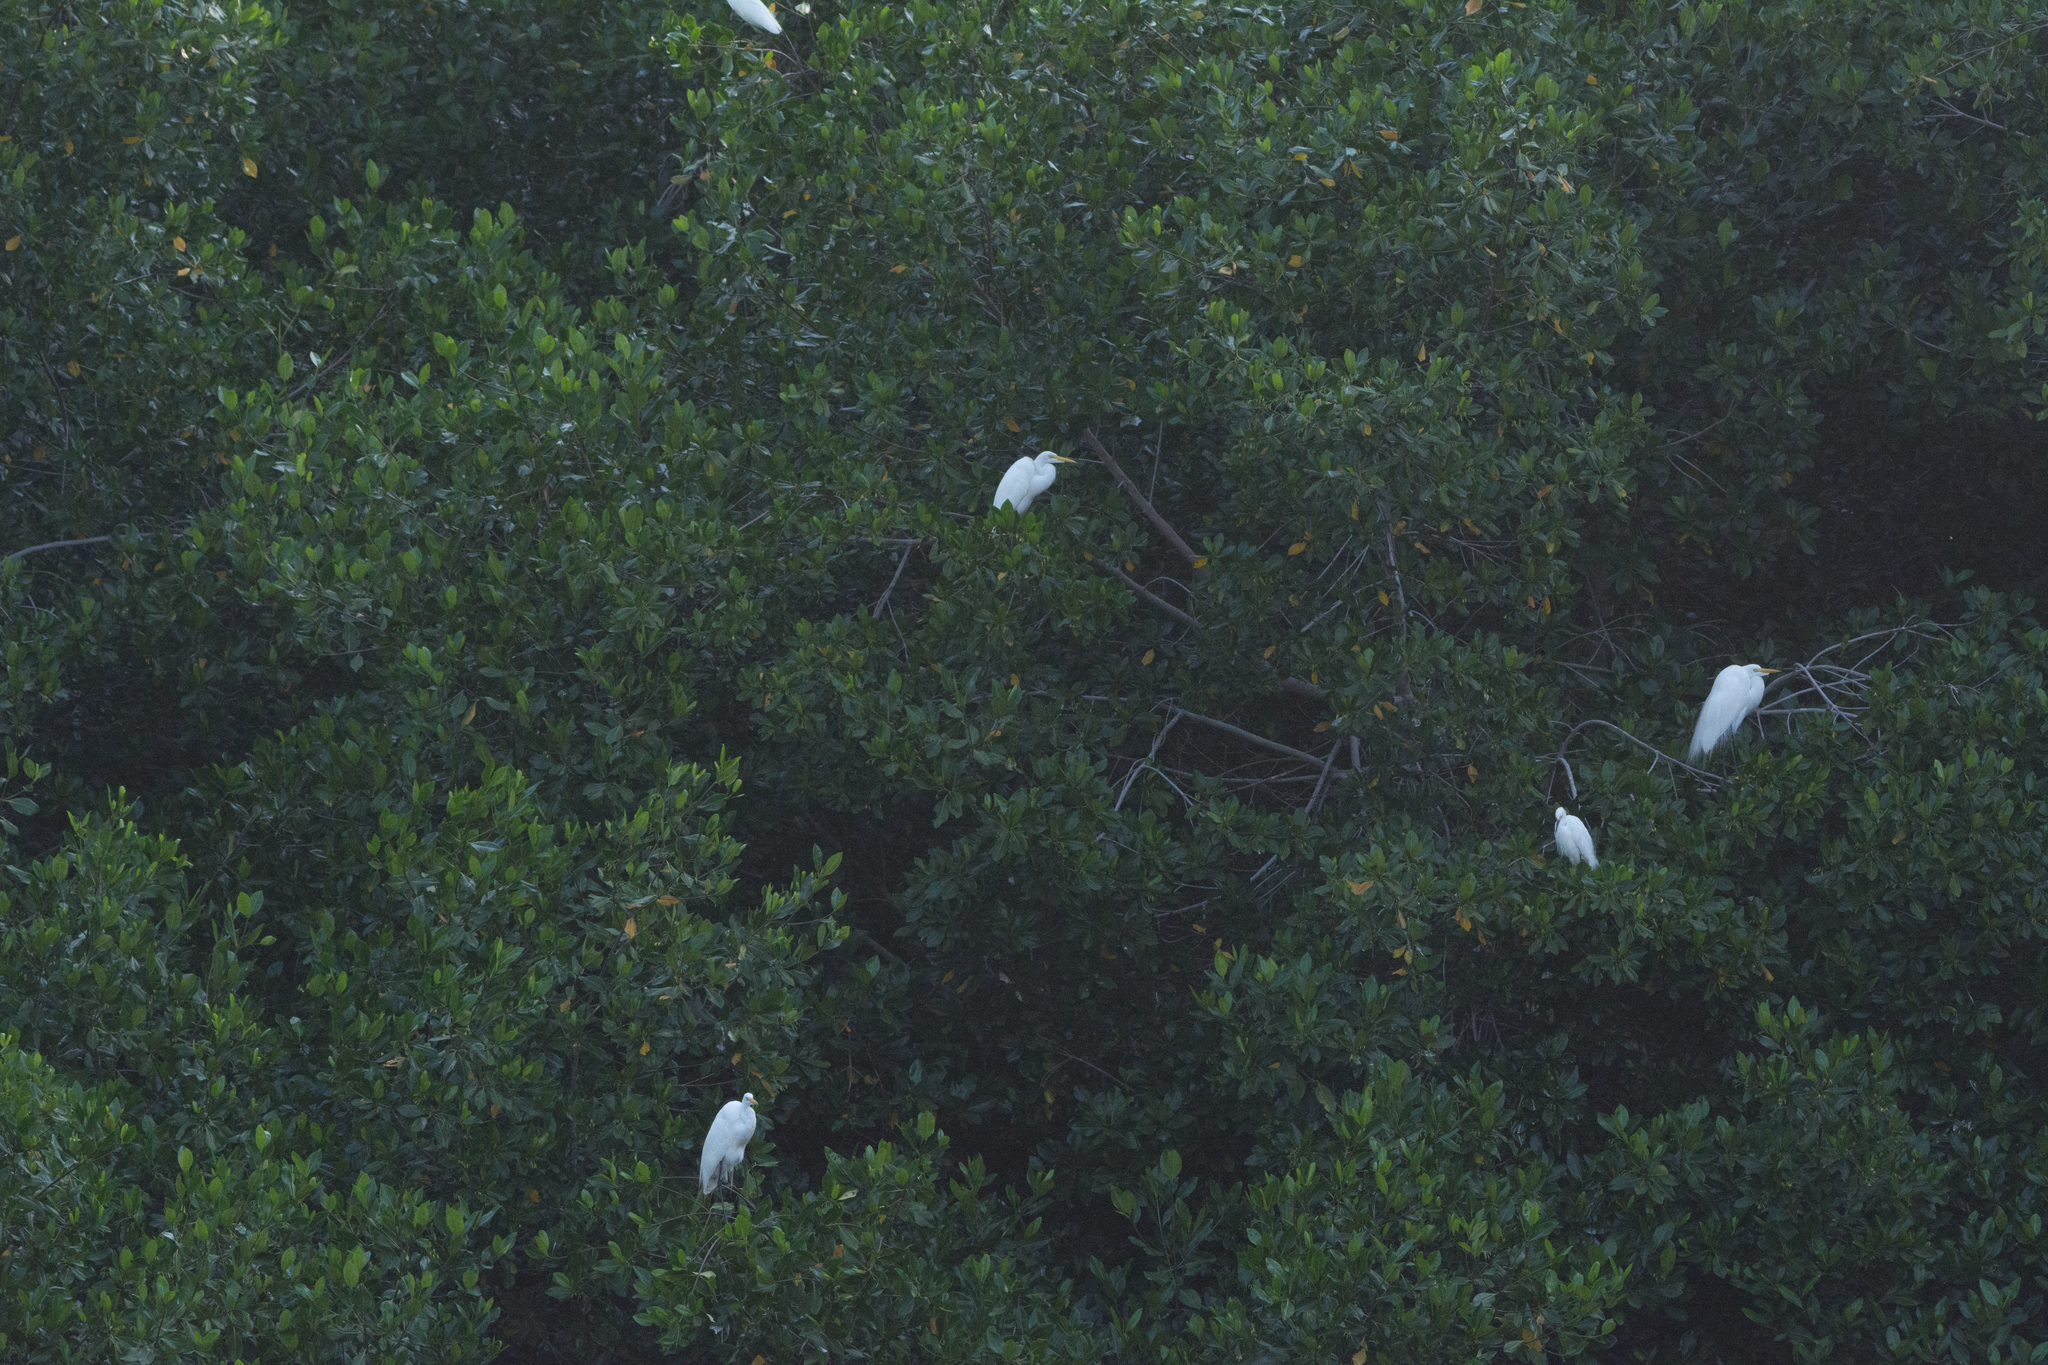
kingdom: Animalia
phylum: Chordata
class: Aves
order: Pelecaniformes
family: Ardeidae
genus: Ardea
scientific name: Ardea alba
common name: Great egret
